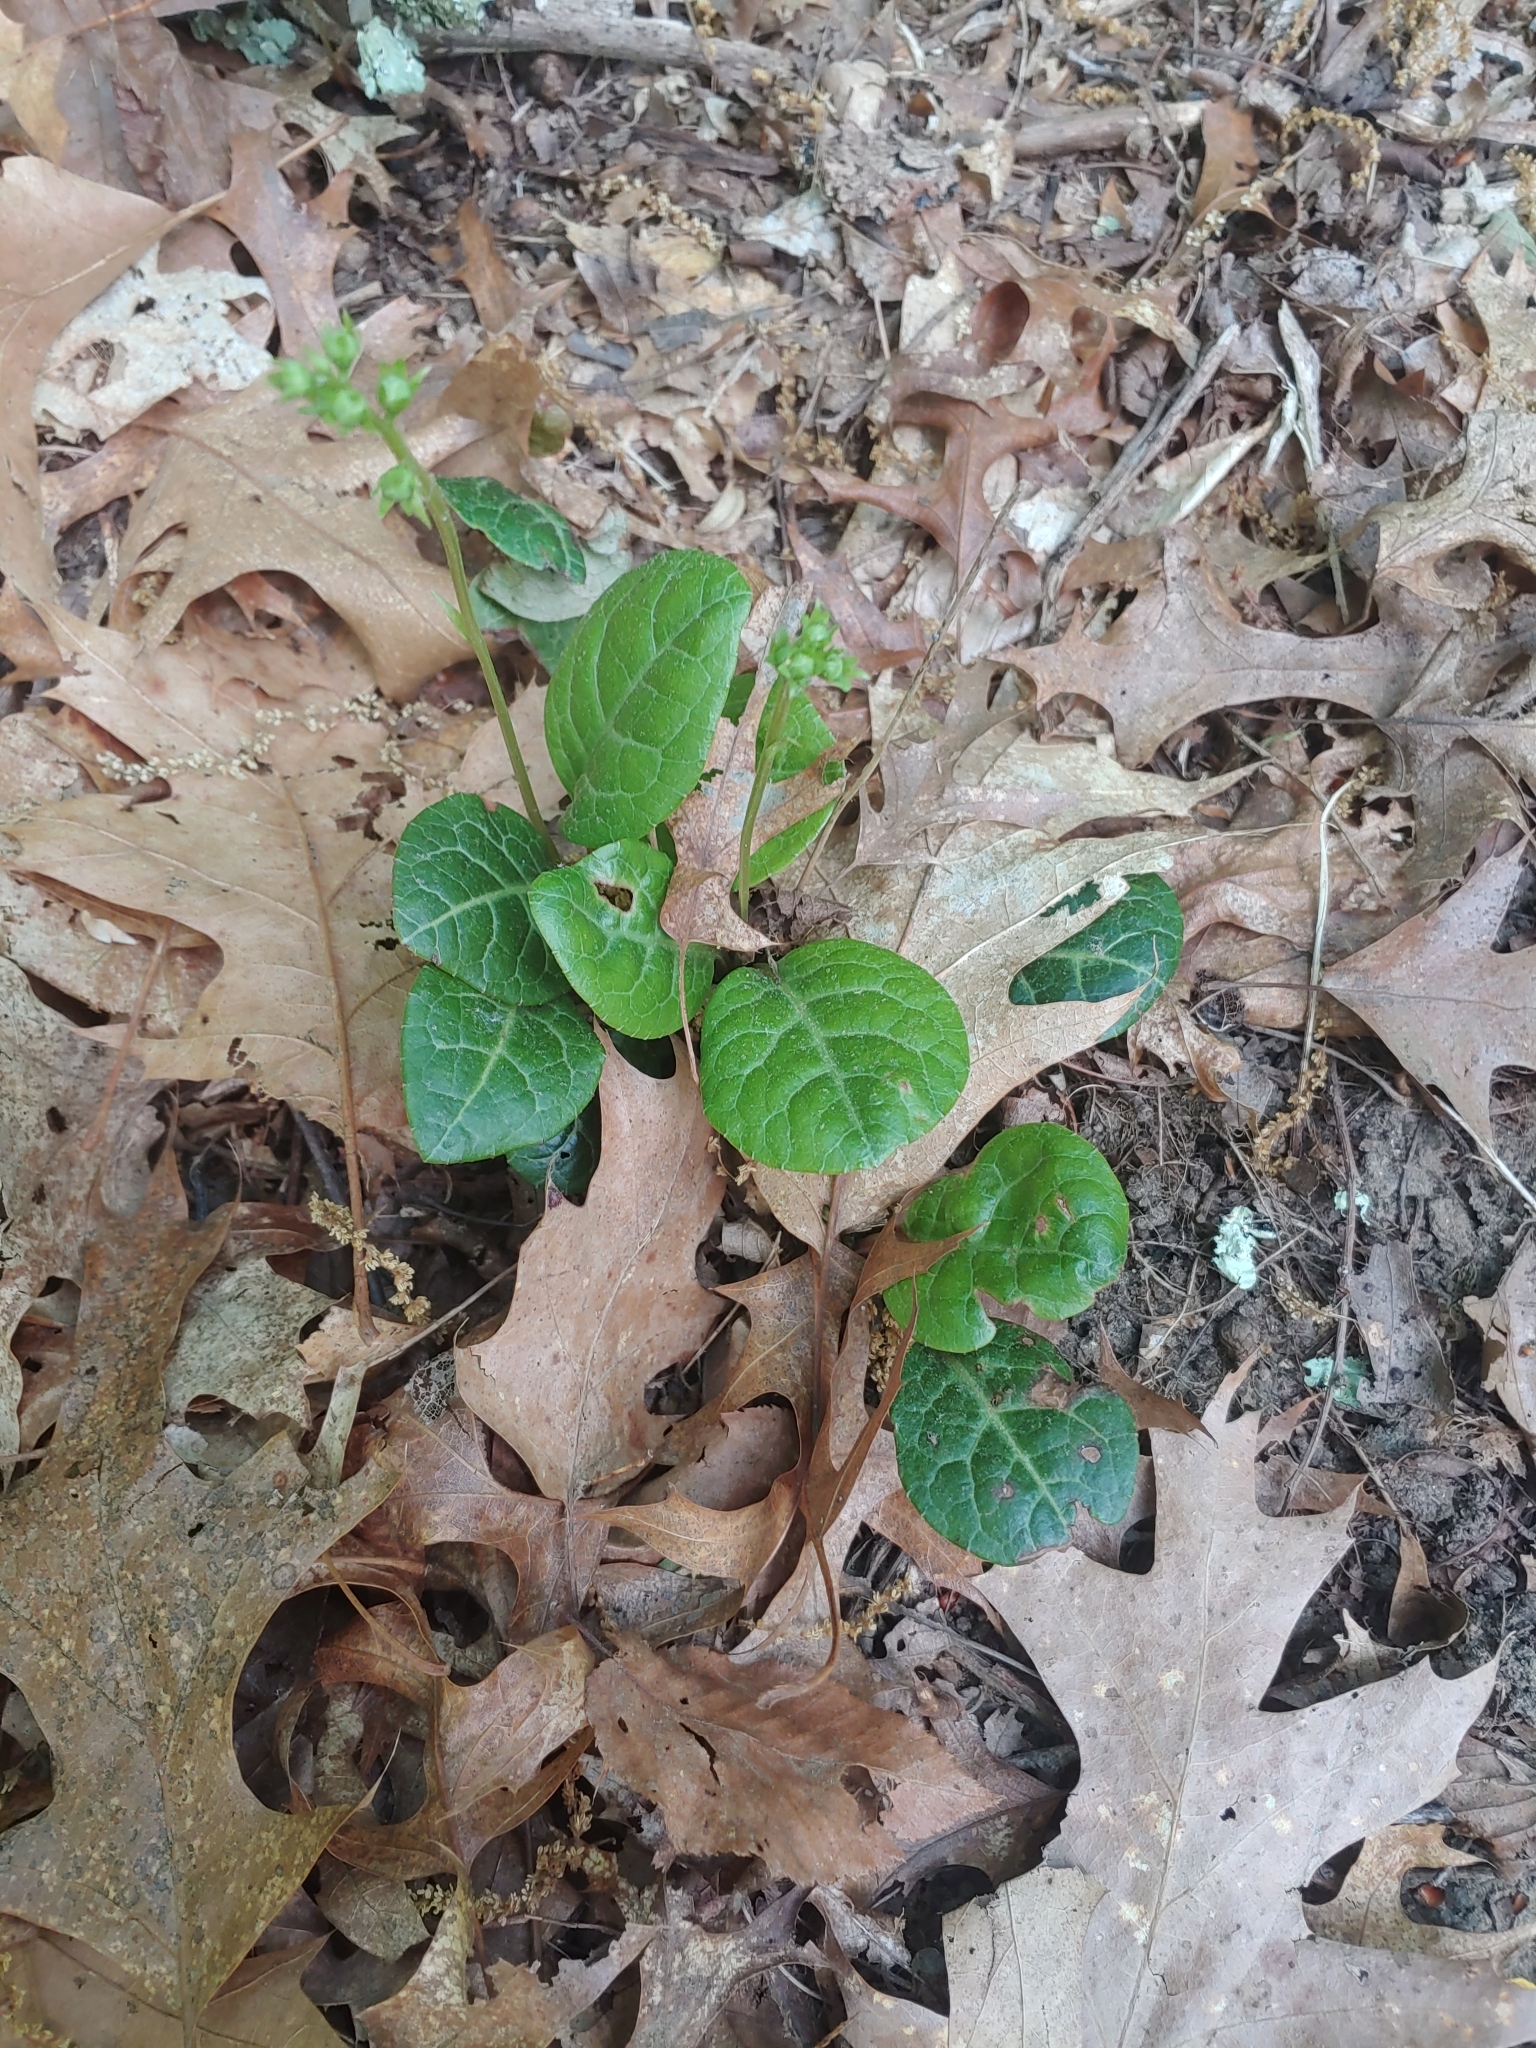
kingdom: Plantae
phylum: Tracheophyta
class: Magnoliopsida
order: Ericales
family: Ericaceae
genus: Pyrola
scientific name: Pyrola americana
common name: American wintergreen
